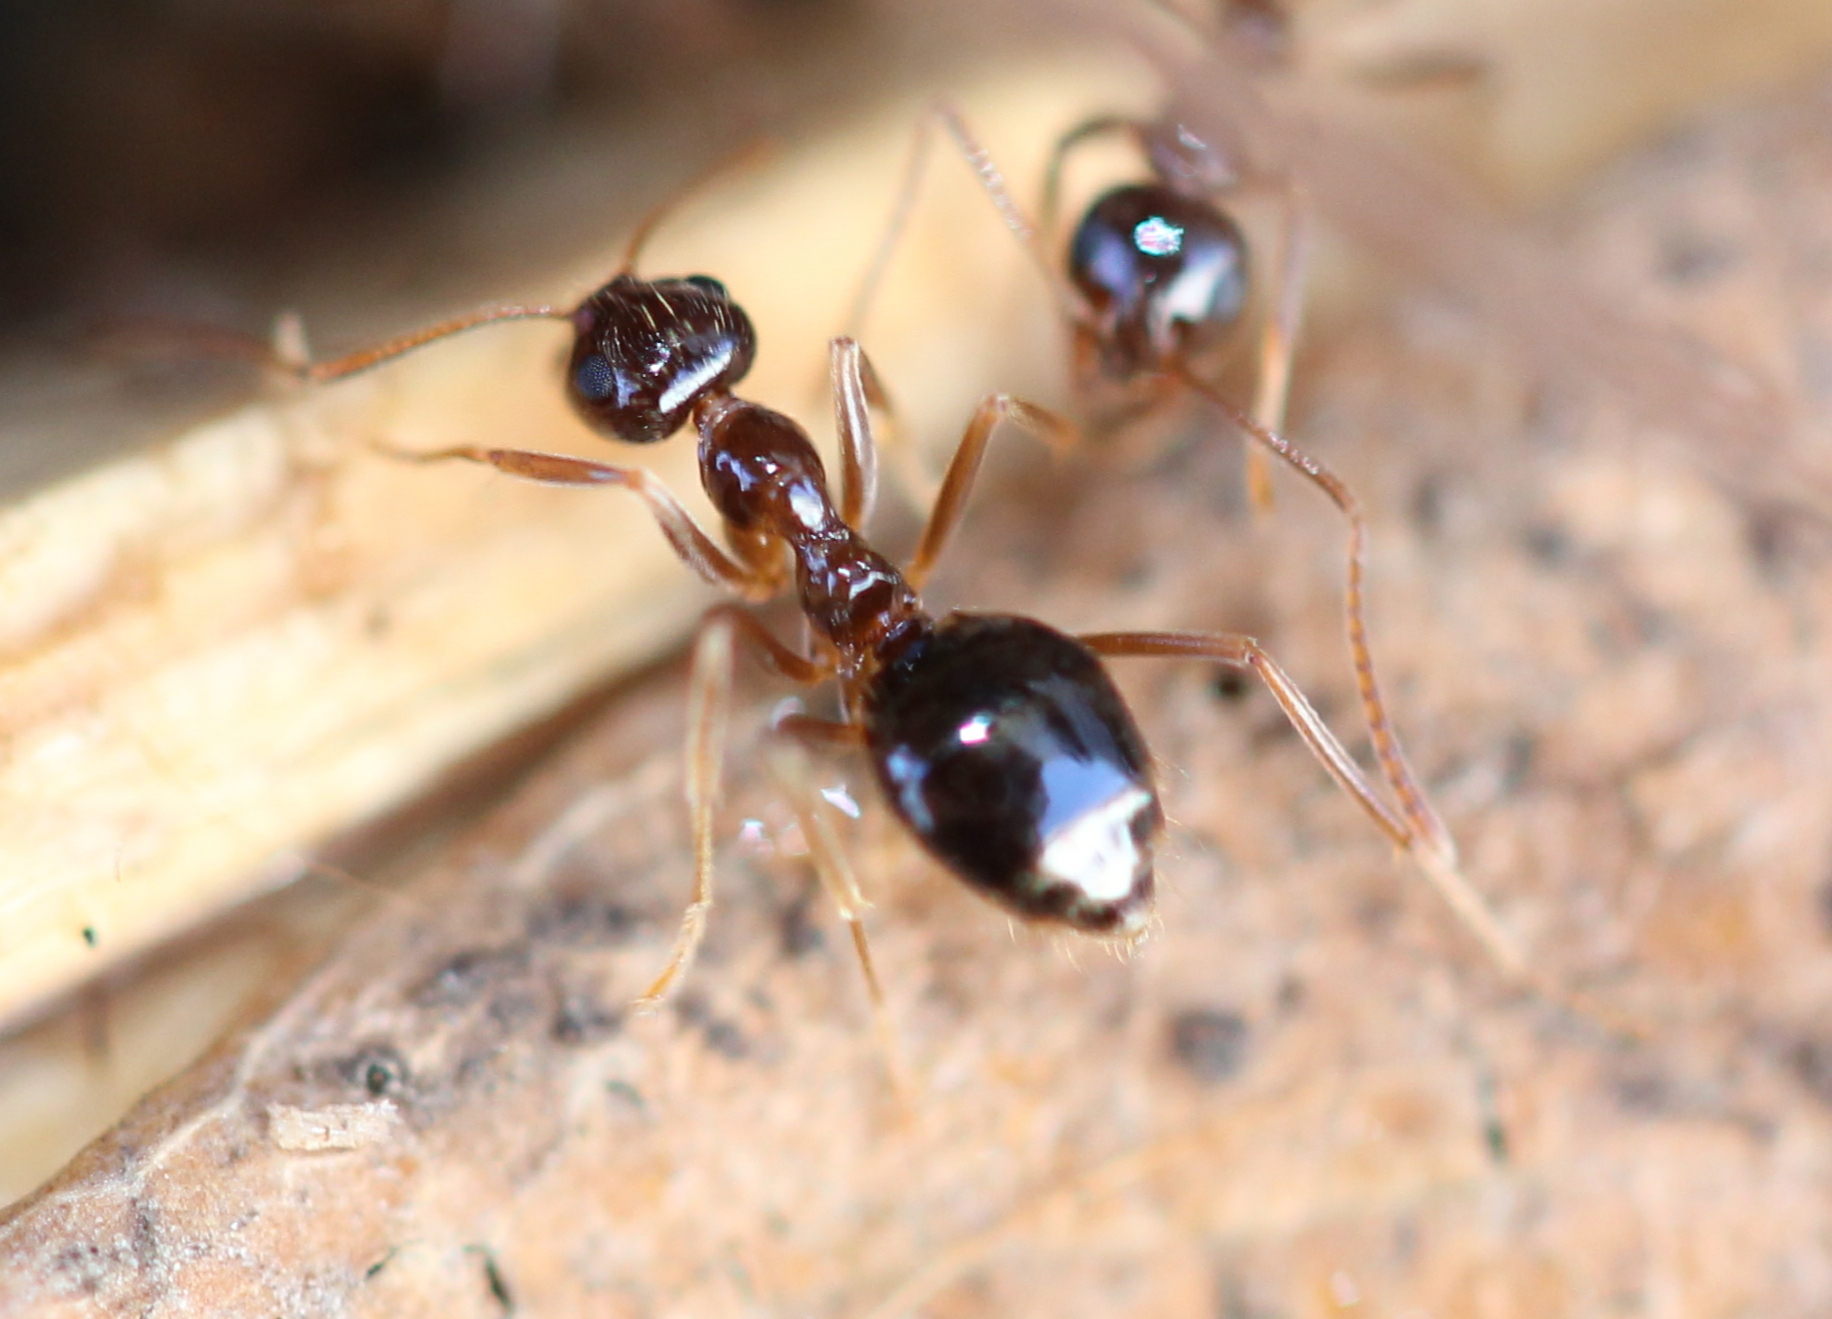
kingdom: Animalia
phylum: Arthropoda
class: Insecta
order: Hymenoptera
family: Formicidae
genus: Prenolepis
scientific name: Prenolepis imparis
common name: Small honey ant
